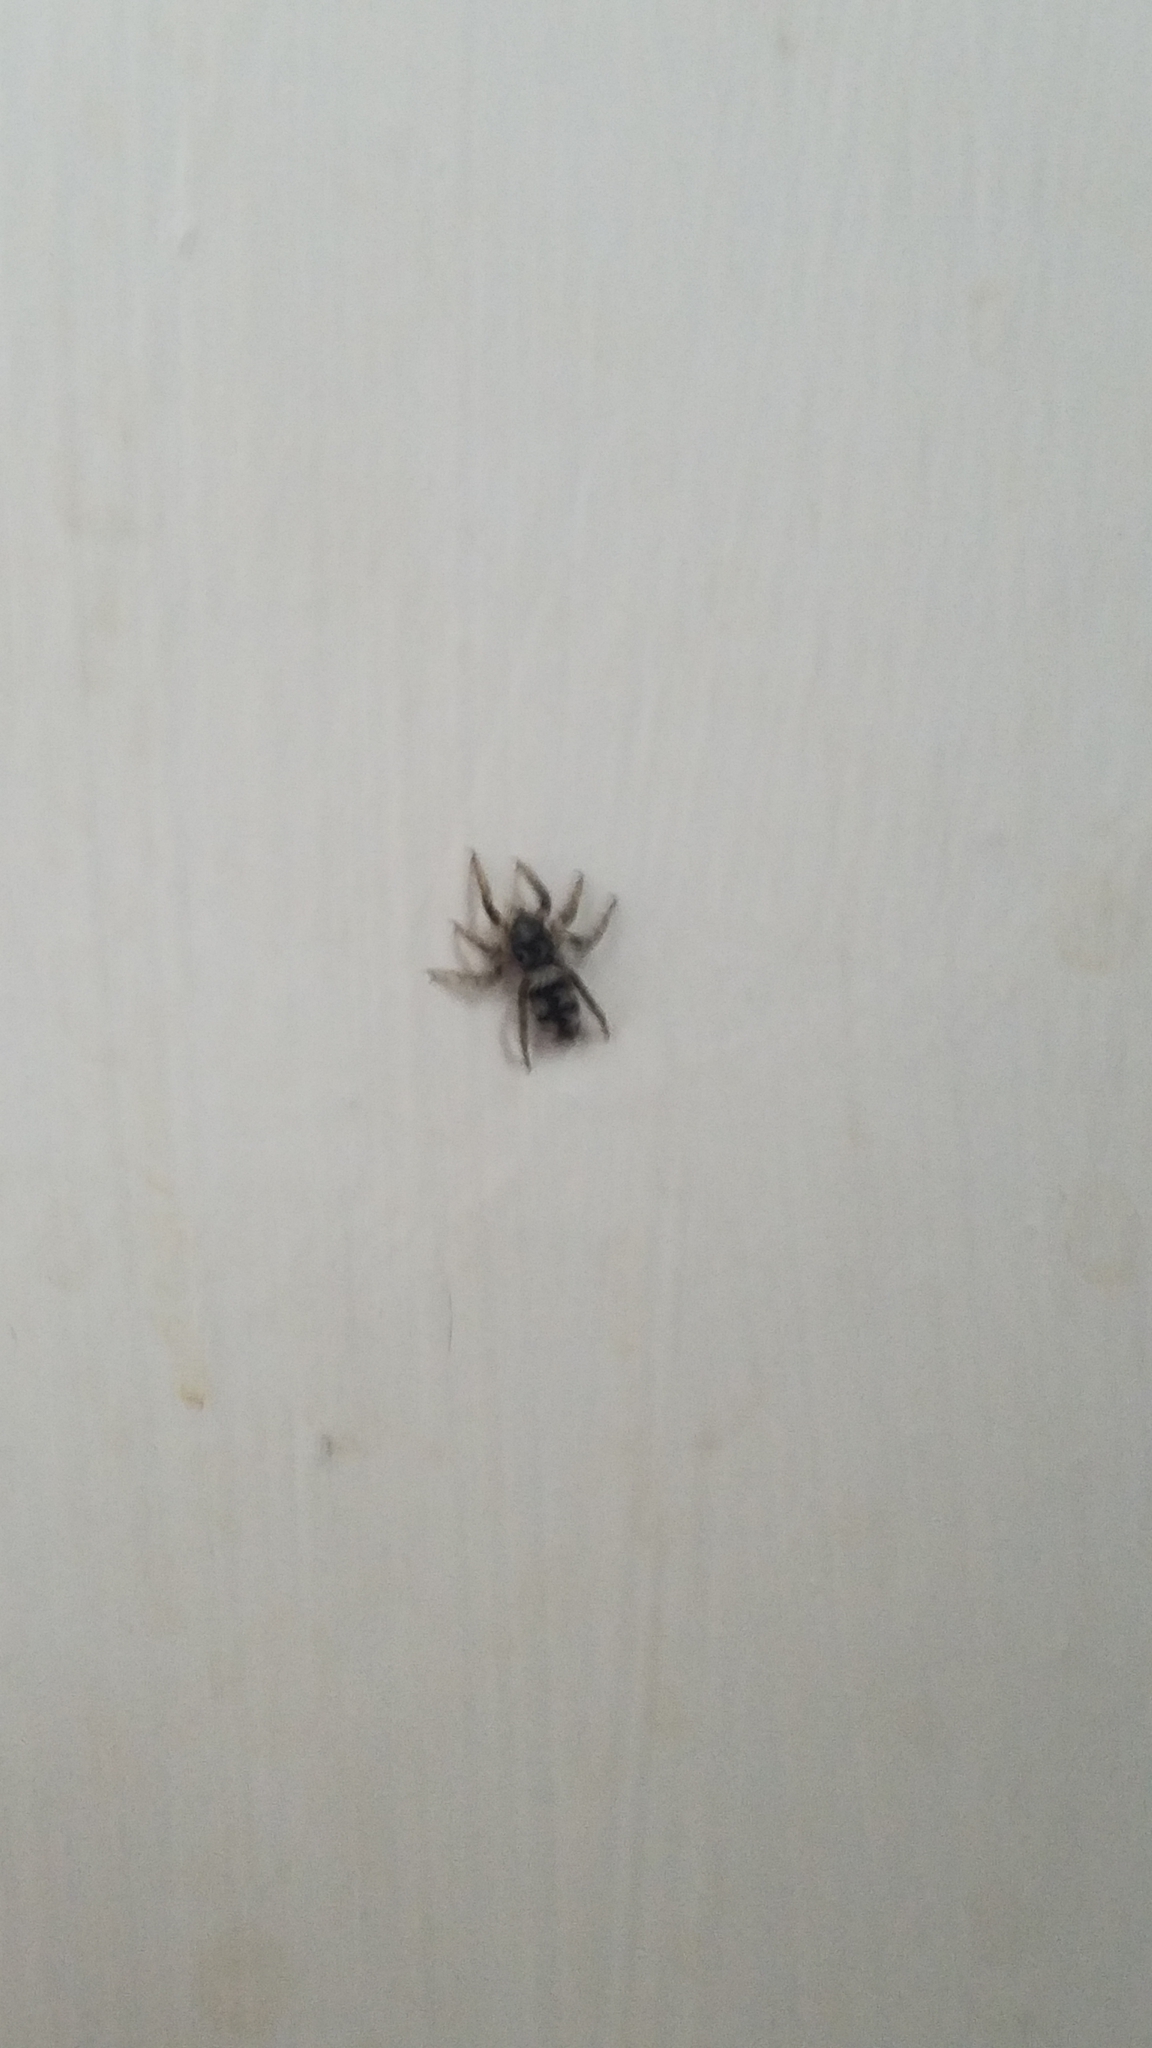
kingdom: Animalia
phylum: Arthropoda
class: Arachnida
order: Araneae
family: Salticidae
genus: Salticus
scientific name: Salticus scenicus
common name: Zebra jumper
